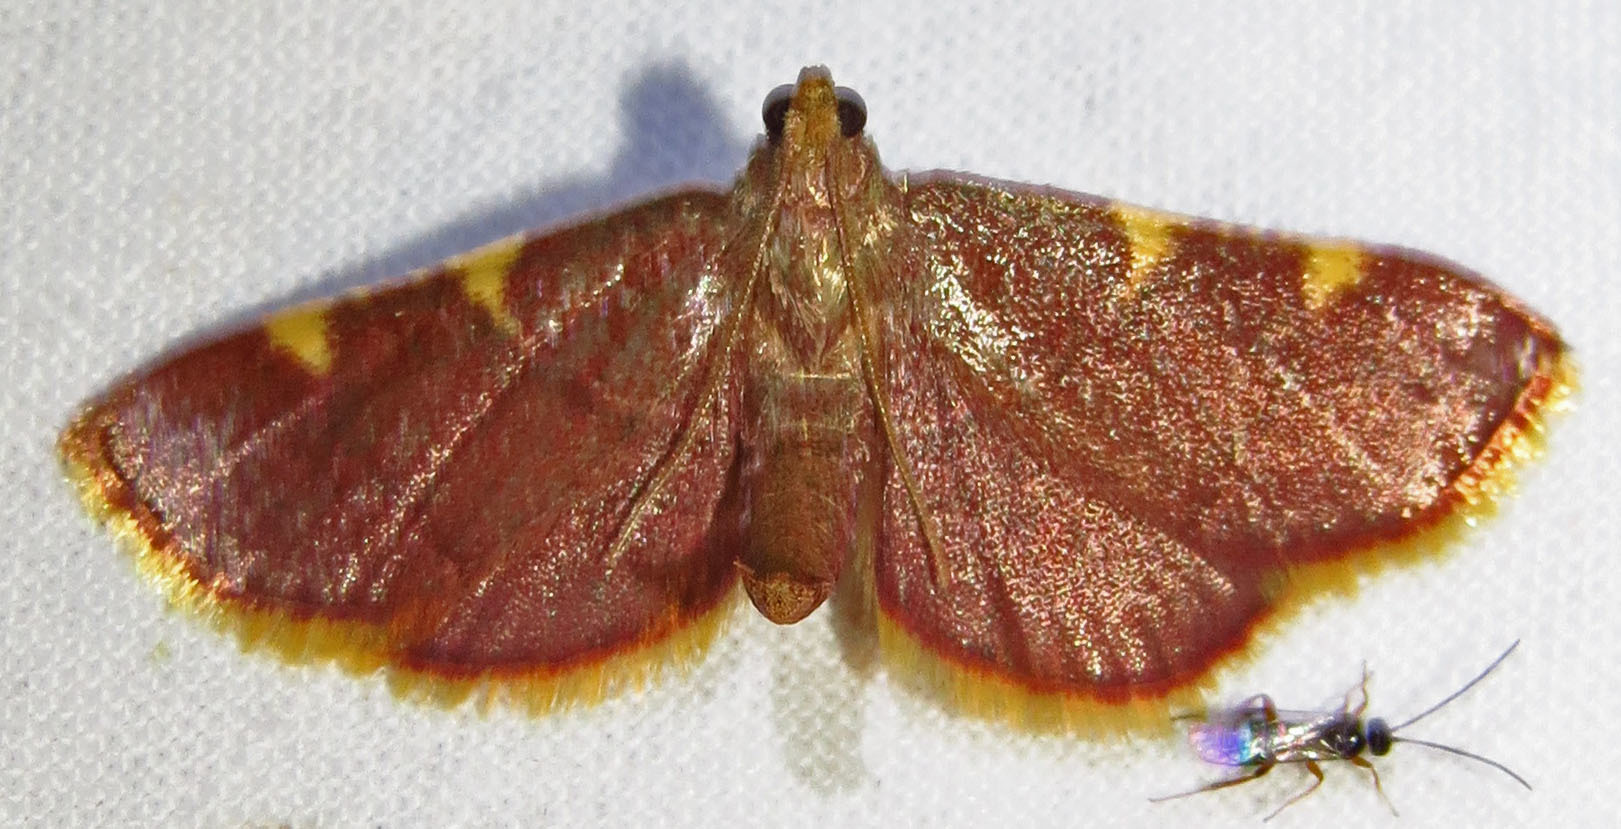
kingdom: Animalia
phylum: Arthropoda
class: Insecta
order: Lepidoptera
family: Pyralidae
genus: Hypsopygia
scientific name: Hypsopygia olinalis
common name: Yellow-fringed dolichomia moth
